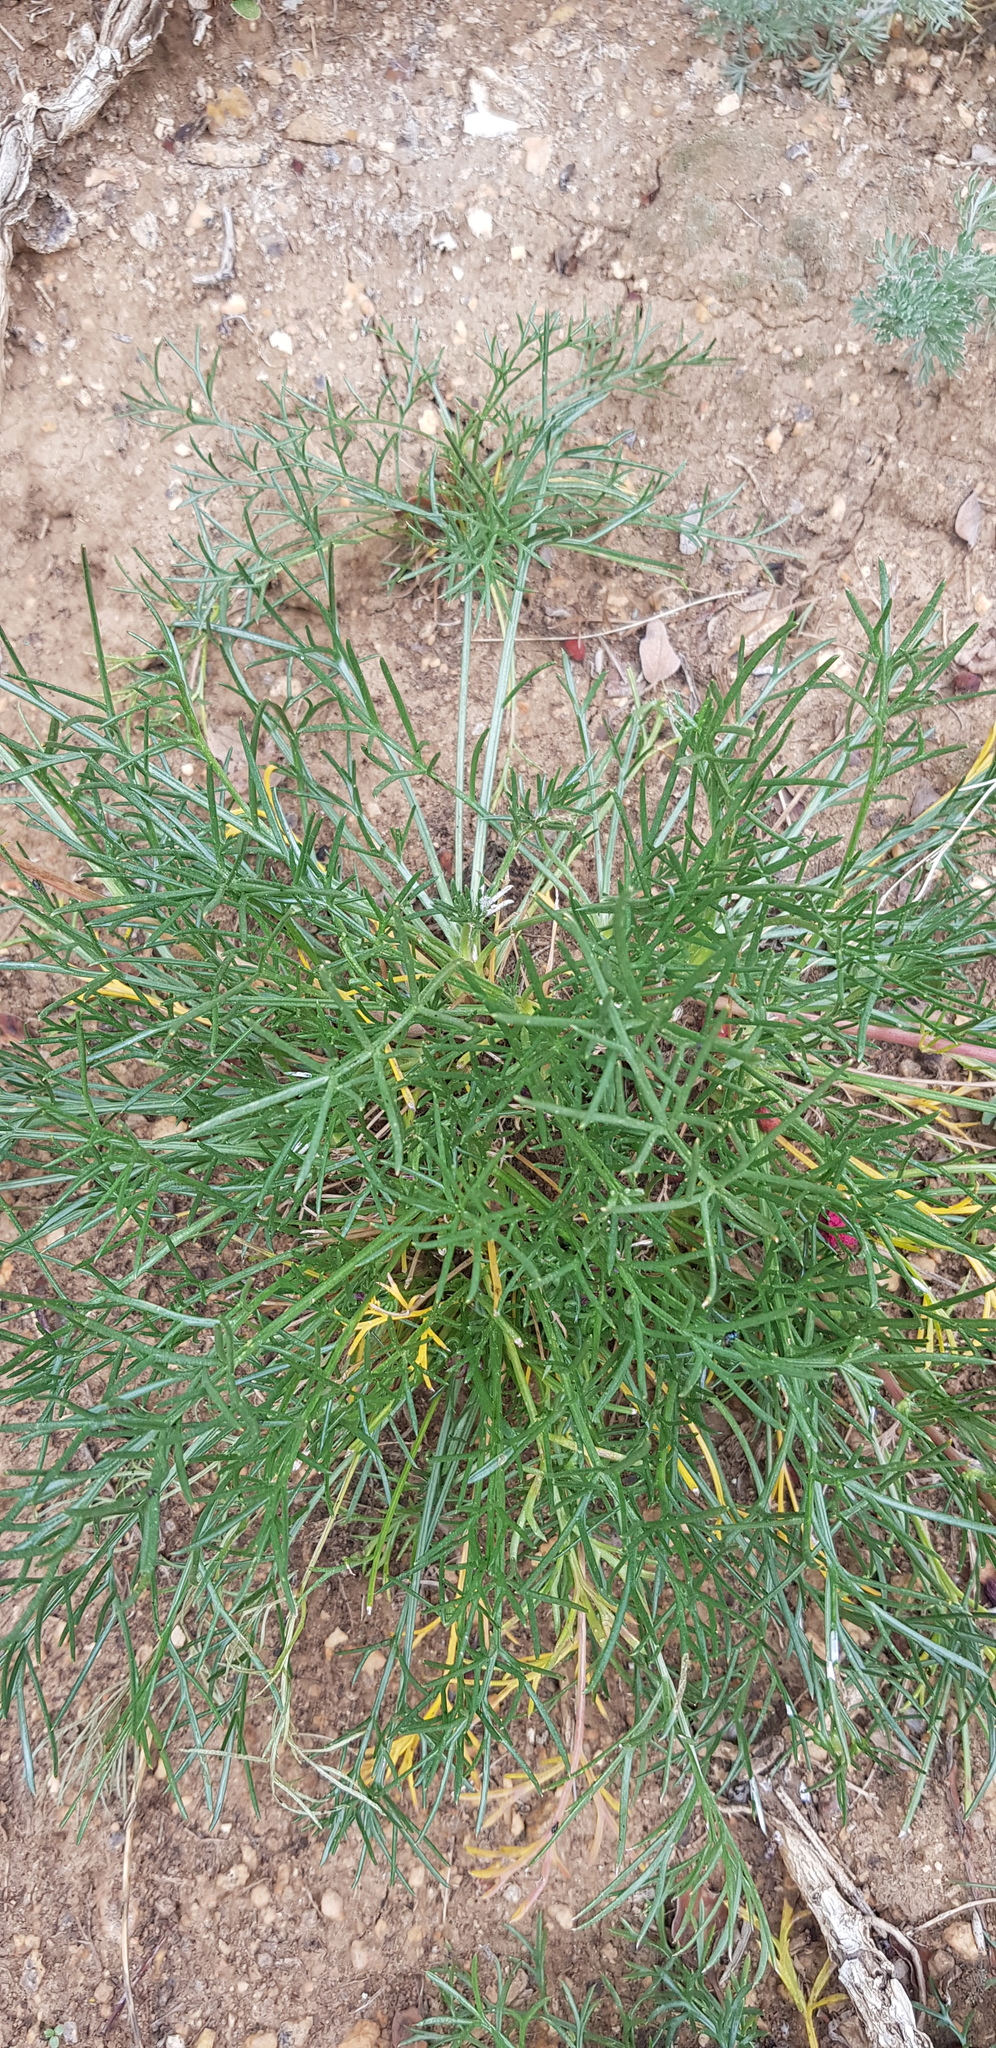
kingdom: Plantae
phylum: Tracheophyta
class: Magnoliopsida
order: Asterales
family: Asteraceae
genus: Artemisia
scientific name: Artemisia pubescens
